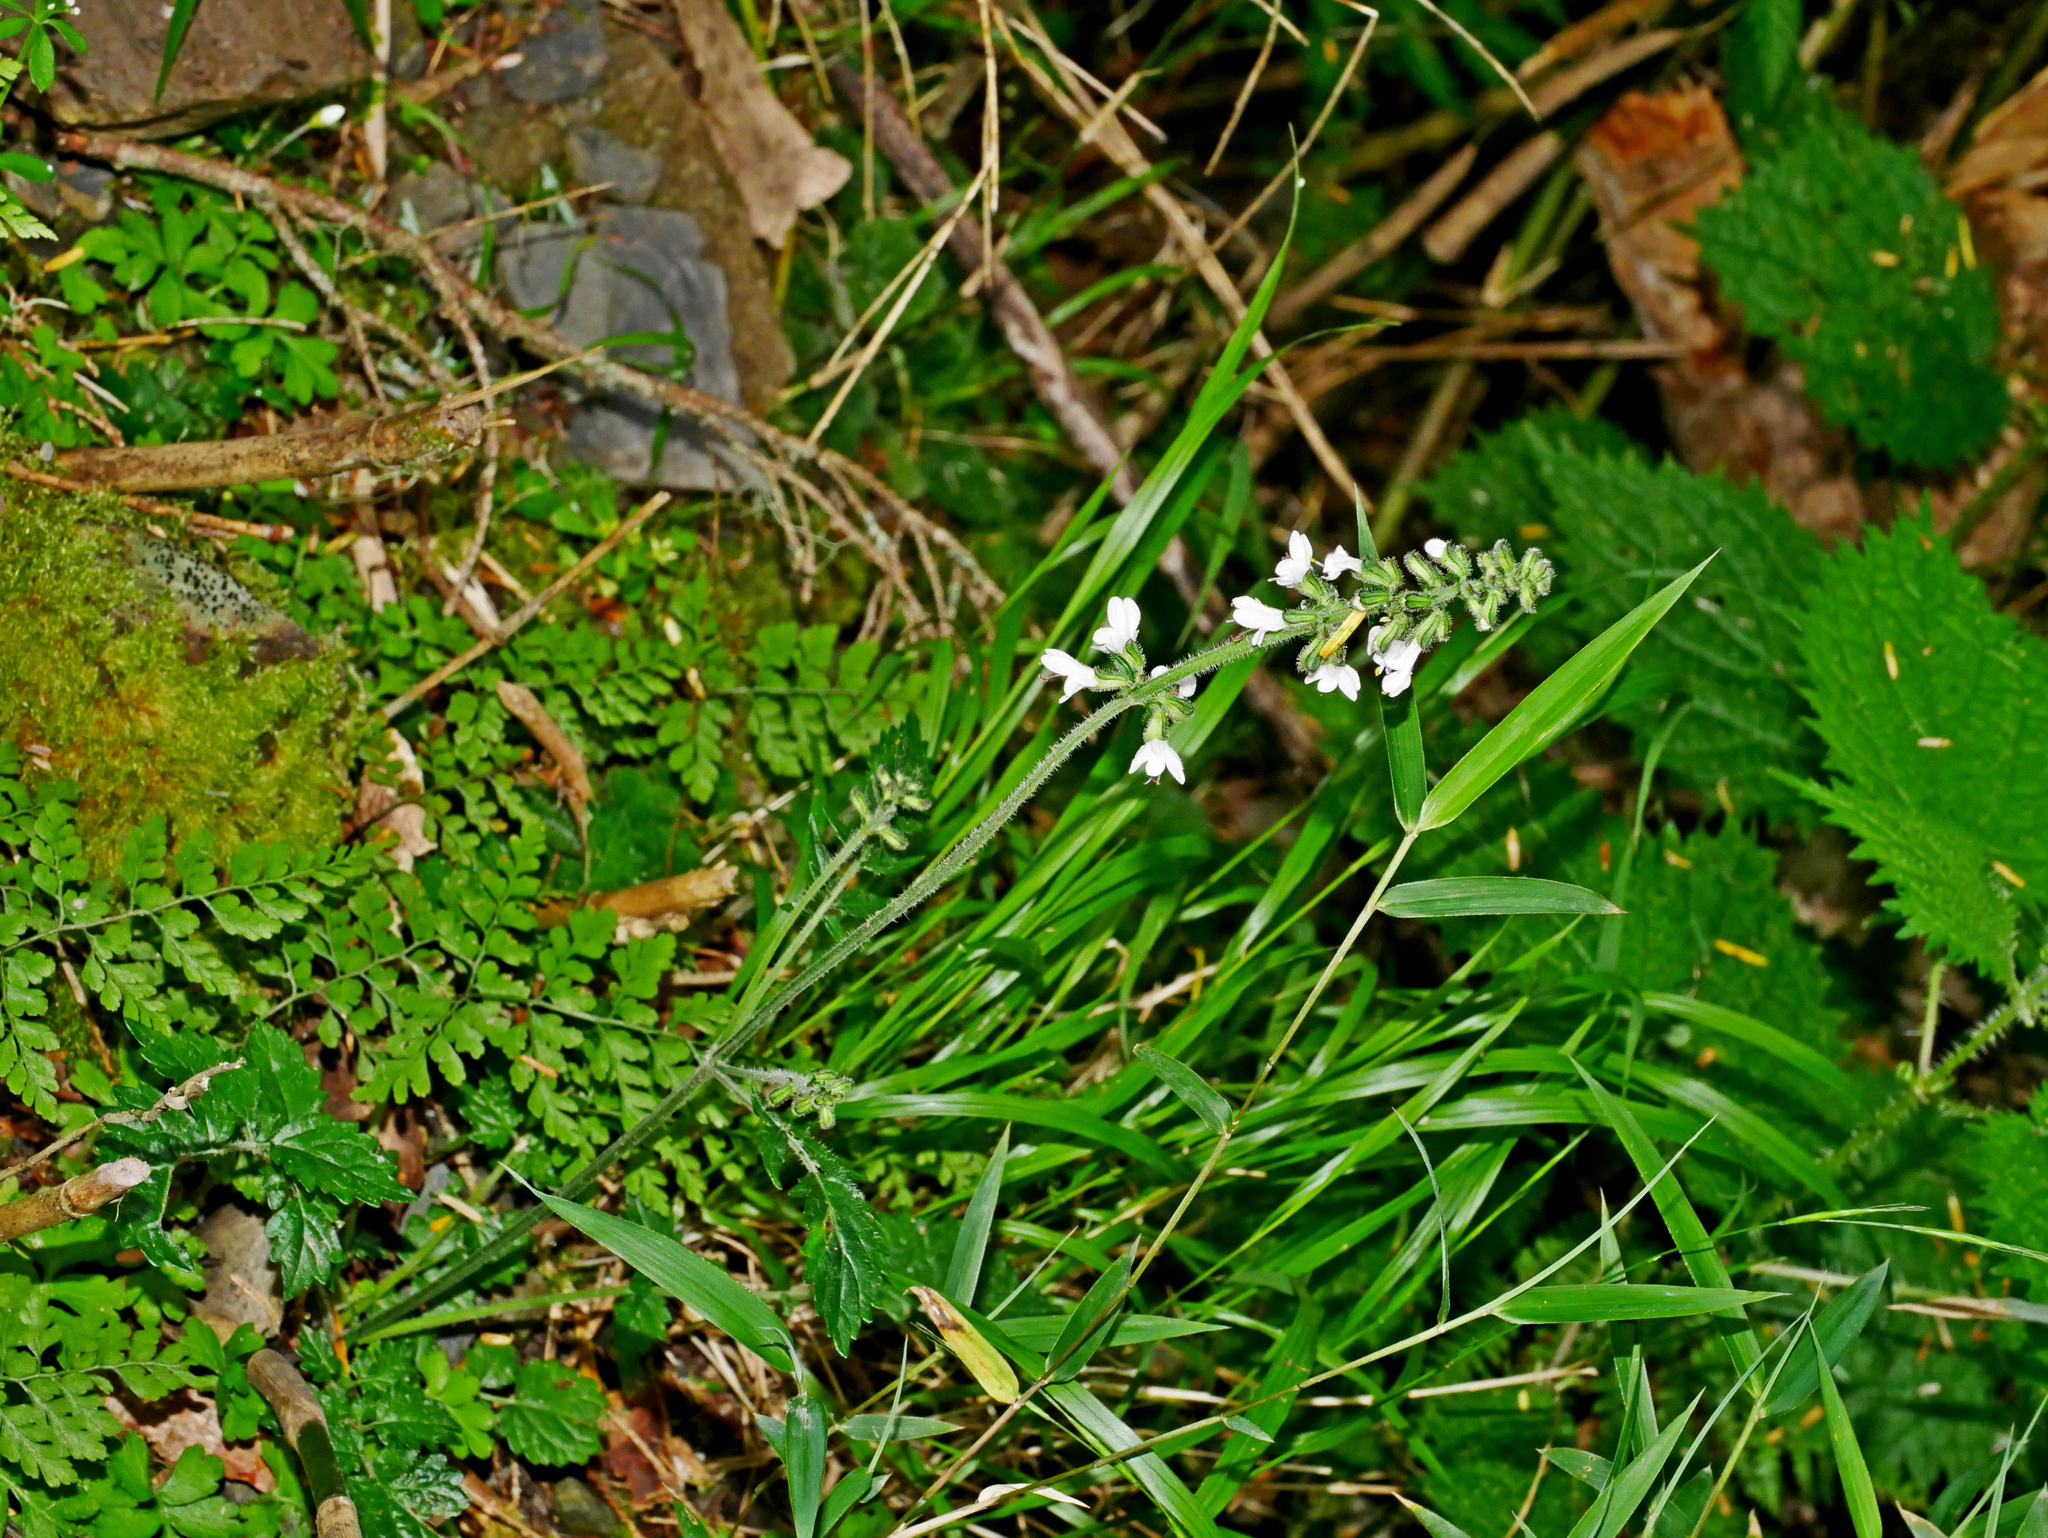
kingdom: Plantae
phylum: Tracheophyta
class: Magnoliopsida
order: Lamiales
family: Lamiaceae
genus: Salvia
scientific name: Salvia scapiformis
